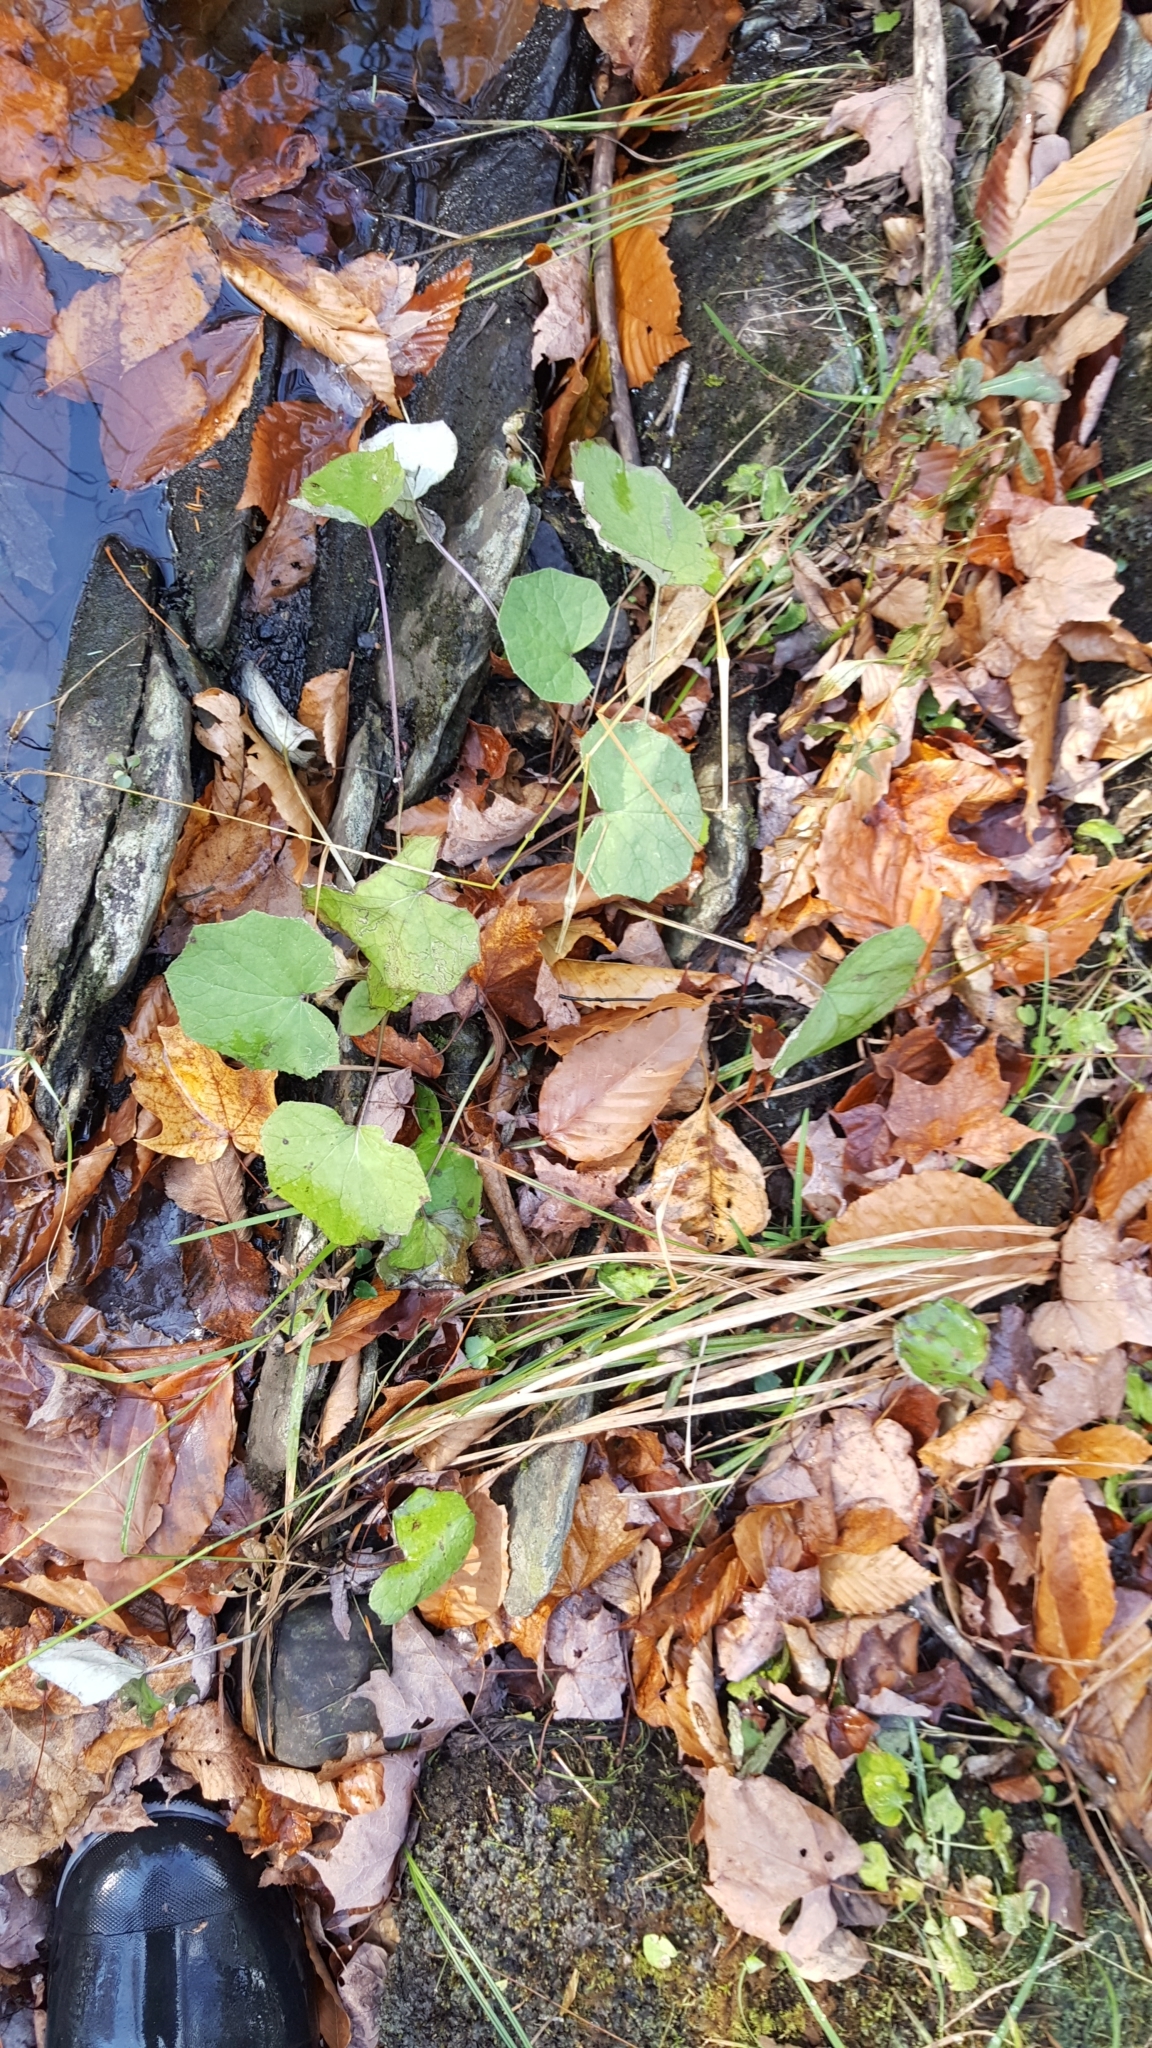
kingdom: Plantae
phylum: Tracheophyta
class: Magnoliopsida
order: Asterales
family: Asteraceae
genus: Tussilago
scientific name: Tussilago farfara
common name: Coltsfoot
